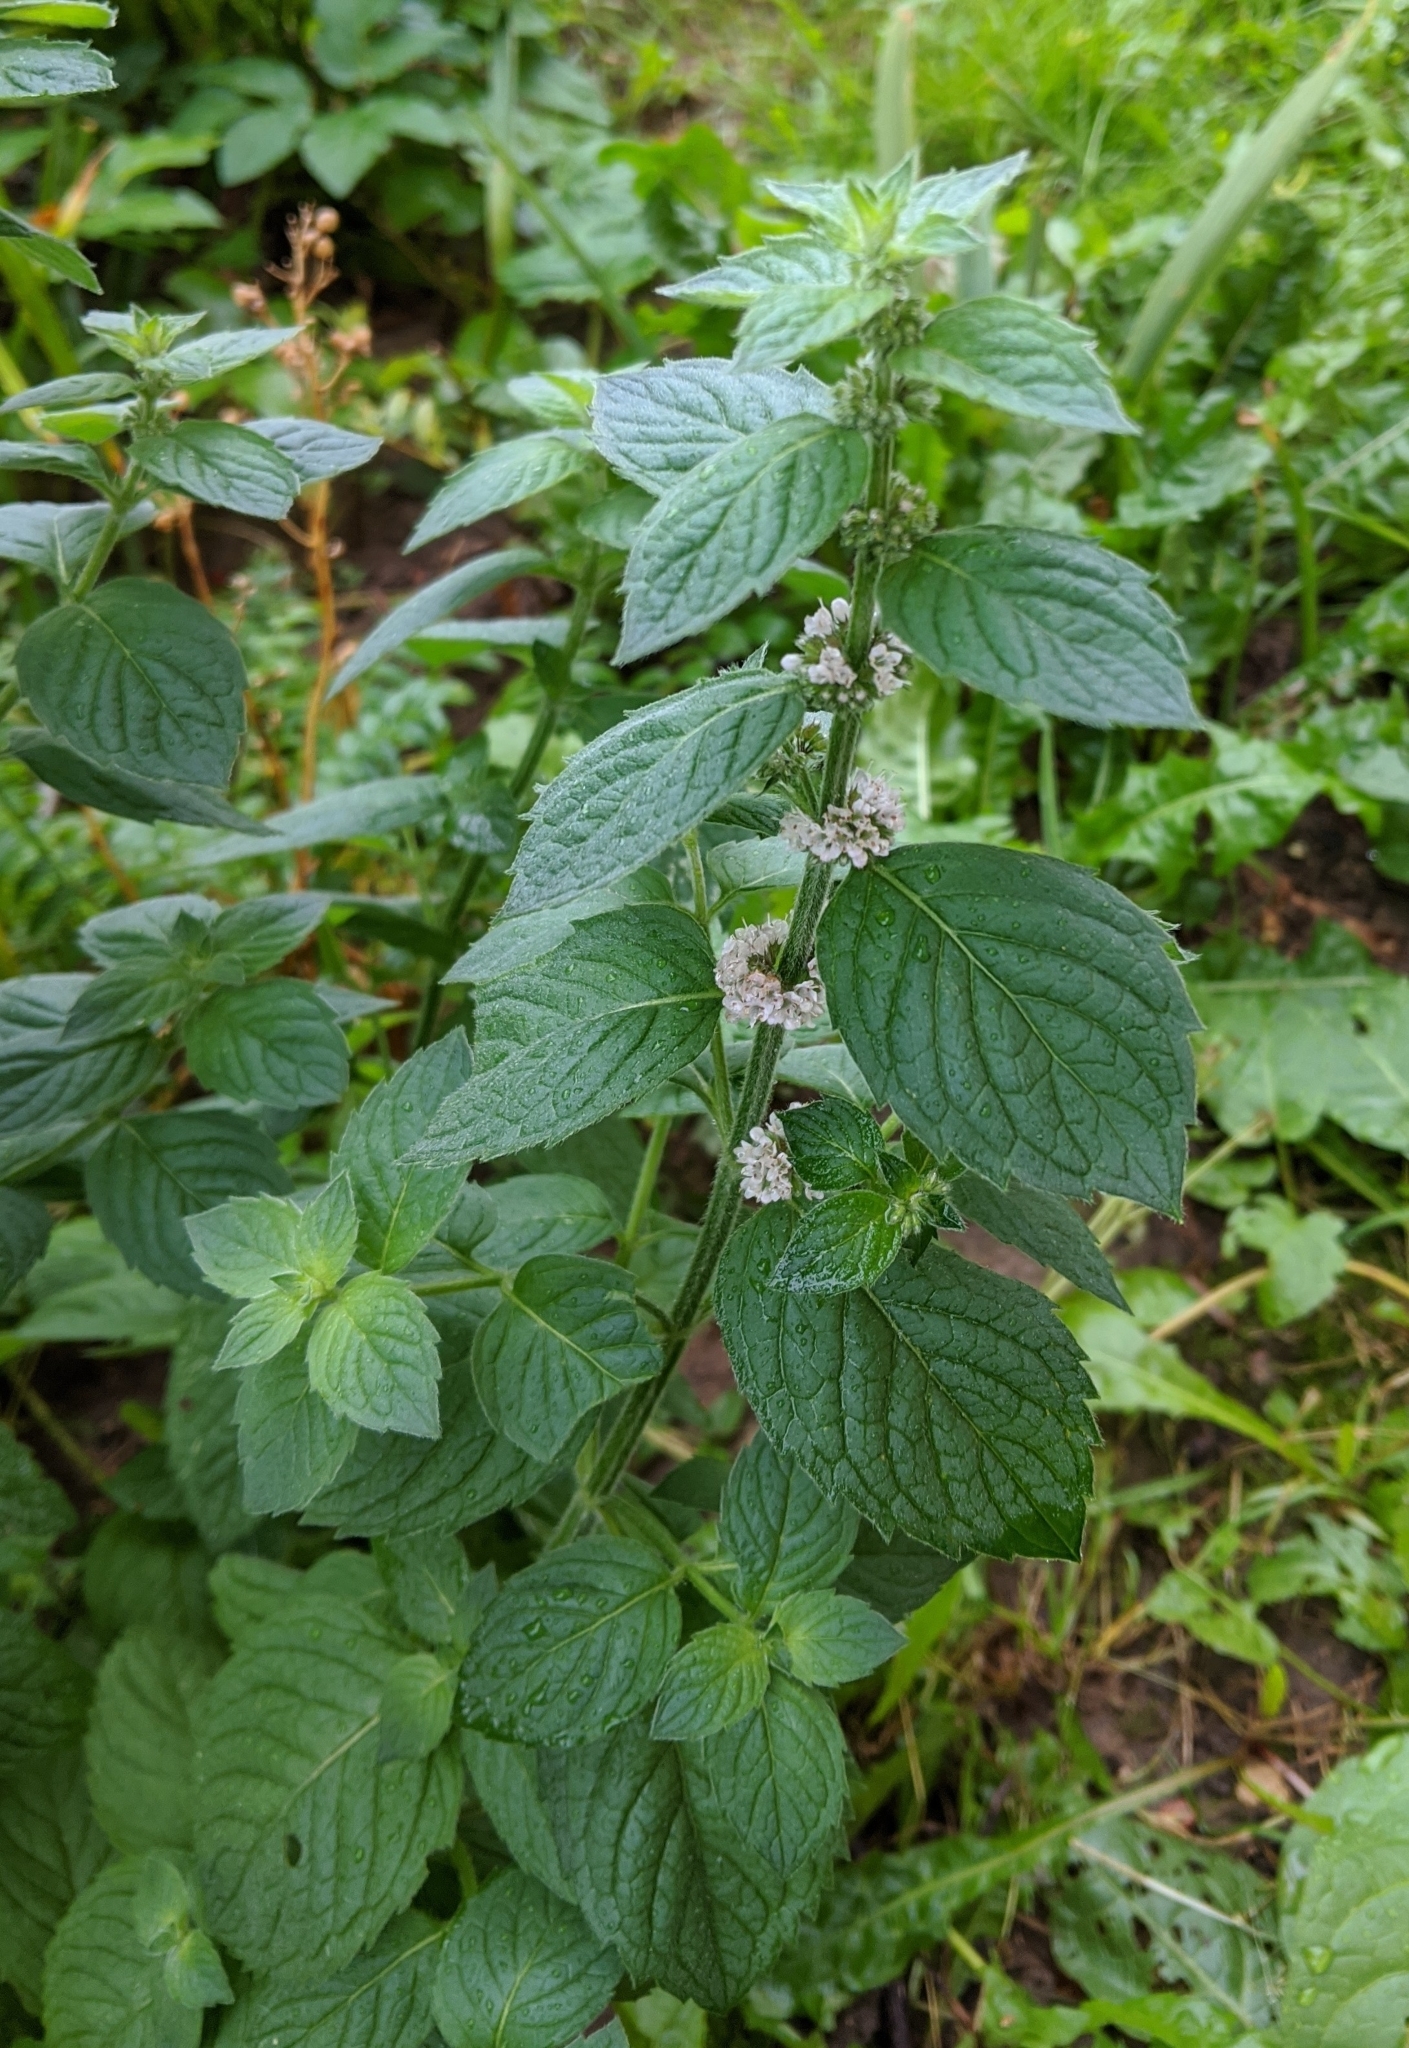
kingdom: Plantae
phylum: Tracheophyta
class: Magnoliopsida
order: Lamiales
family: Lamiaceae
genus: Mentha
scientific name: Mentha arvensis
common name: Corn mint
